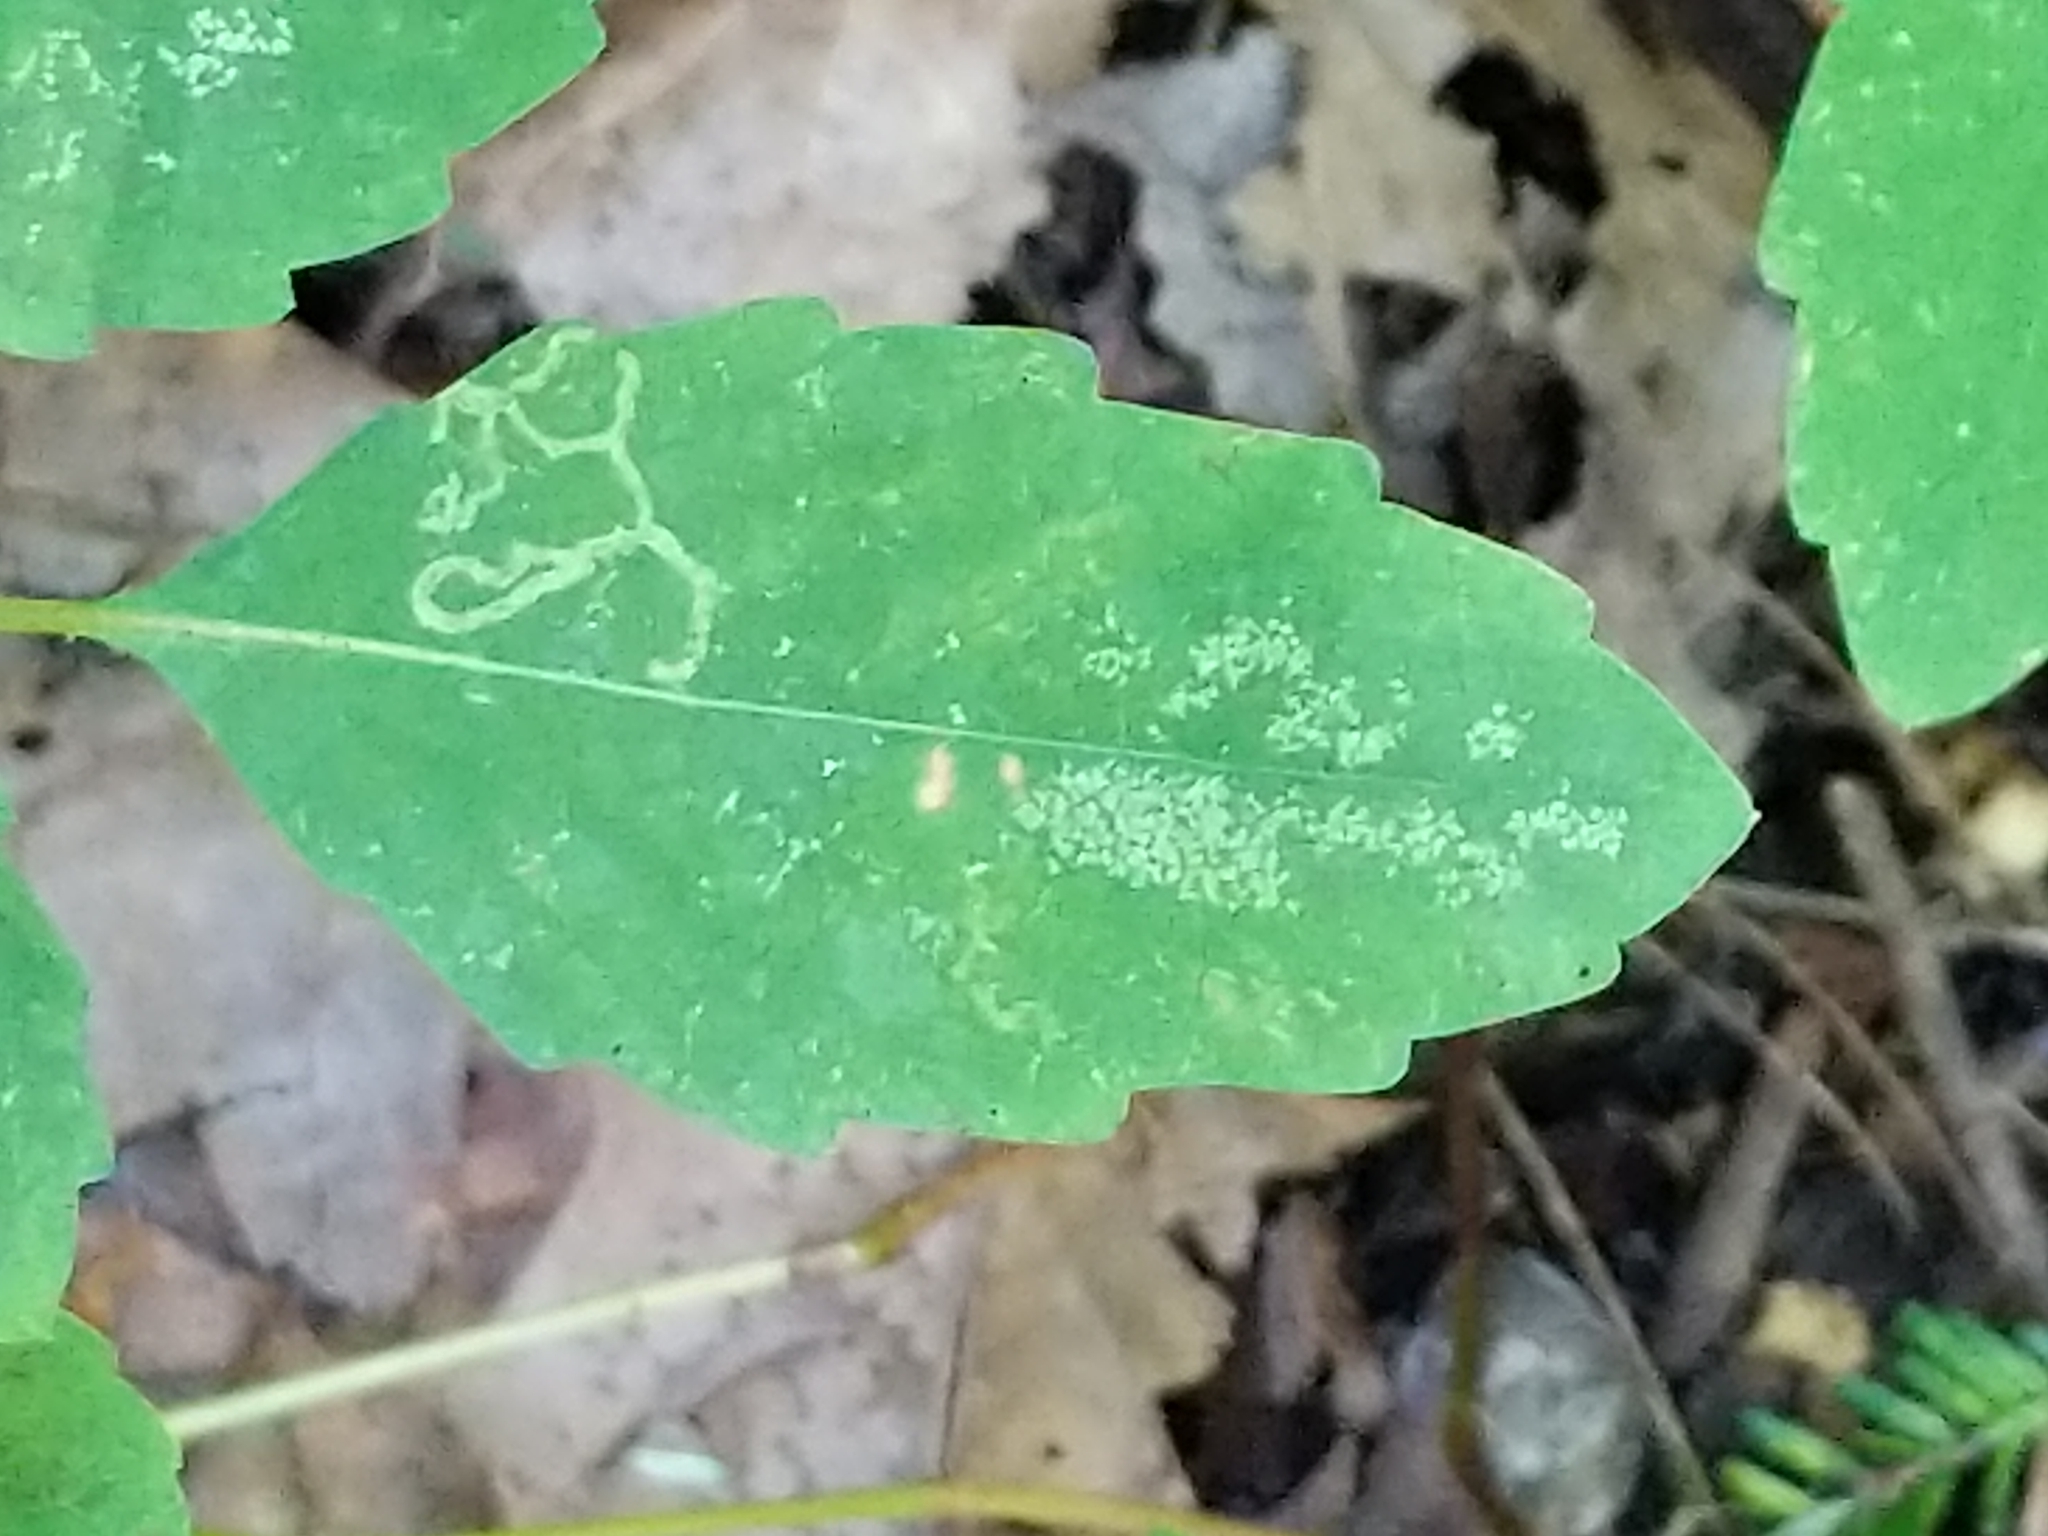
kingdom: Animalia
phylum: Arthropoda
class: Insecta
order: Diptera
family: Agromyzidae
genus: Phytoliriomyza
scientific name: Phytoliriomyza melampyga
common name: Jewelweed leaf-miner fly
